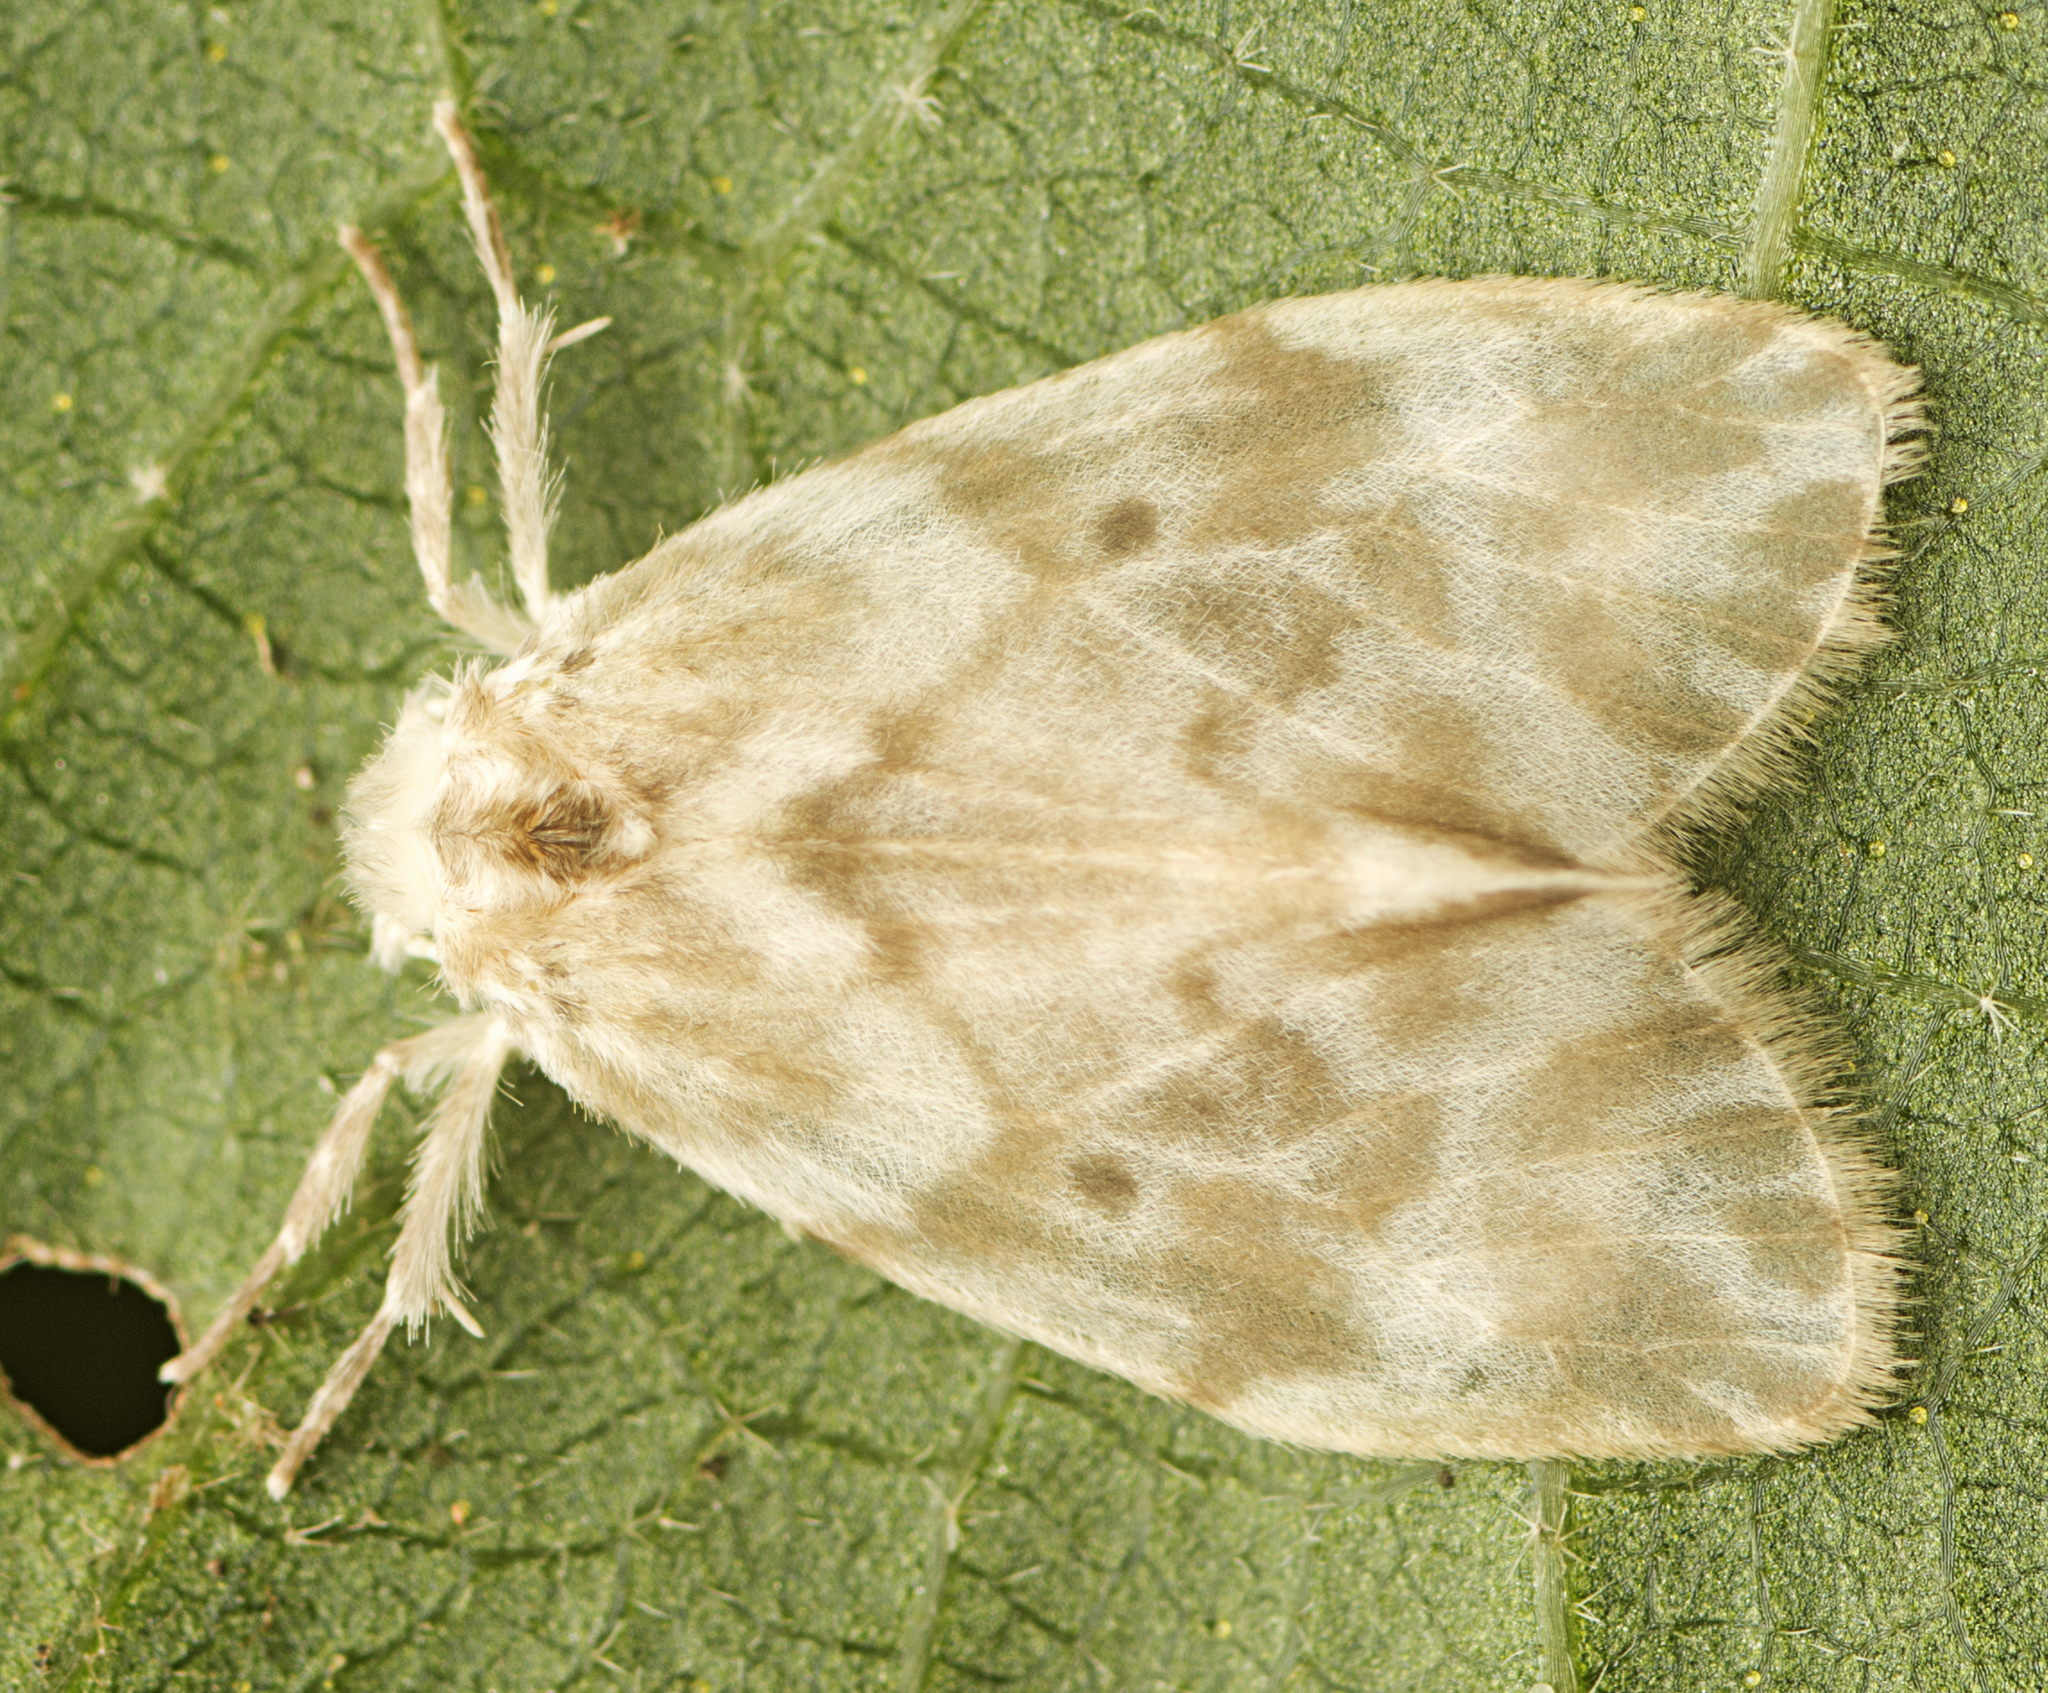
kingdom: Animalia
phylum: Arthropoda
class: Insecta
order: Lepidoptera
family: Erebidae
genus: Schistophleps
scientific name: Schistophleps albida
